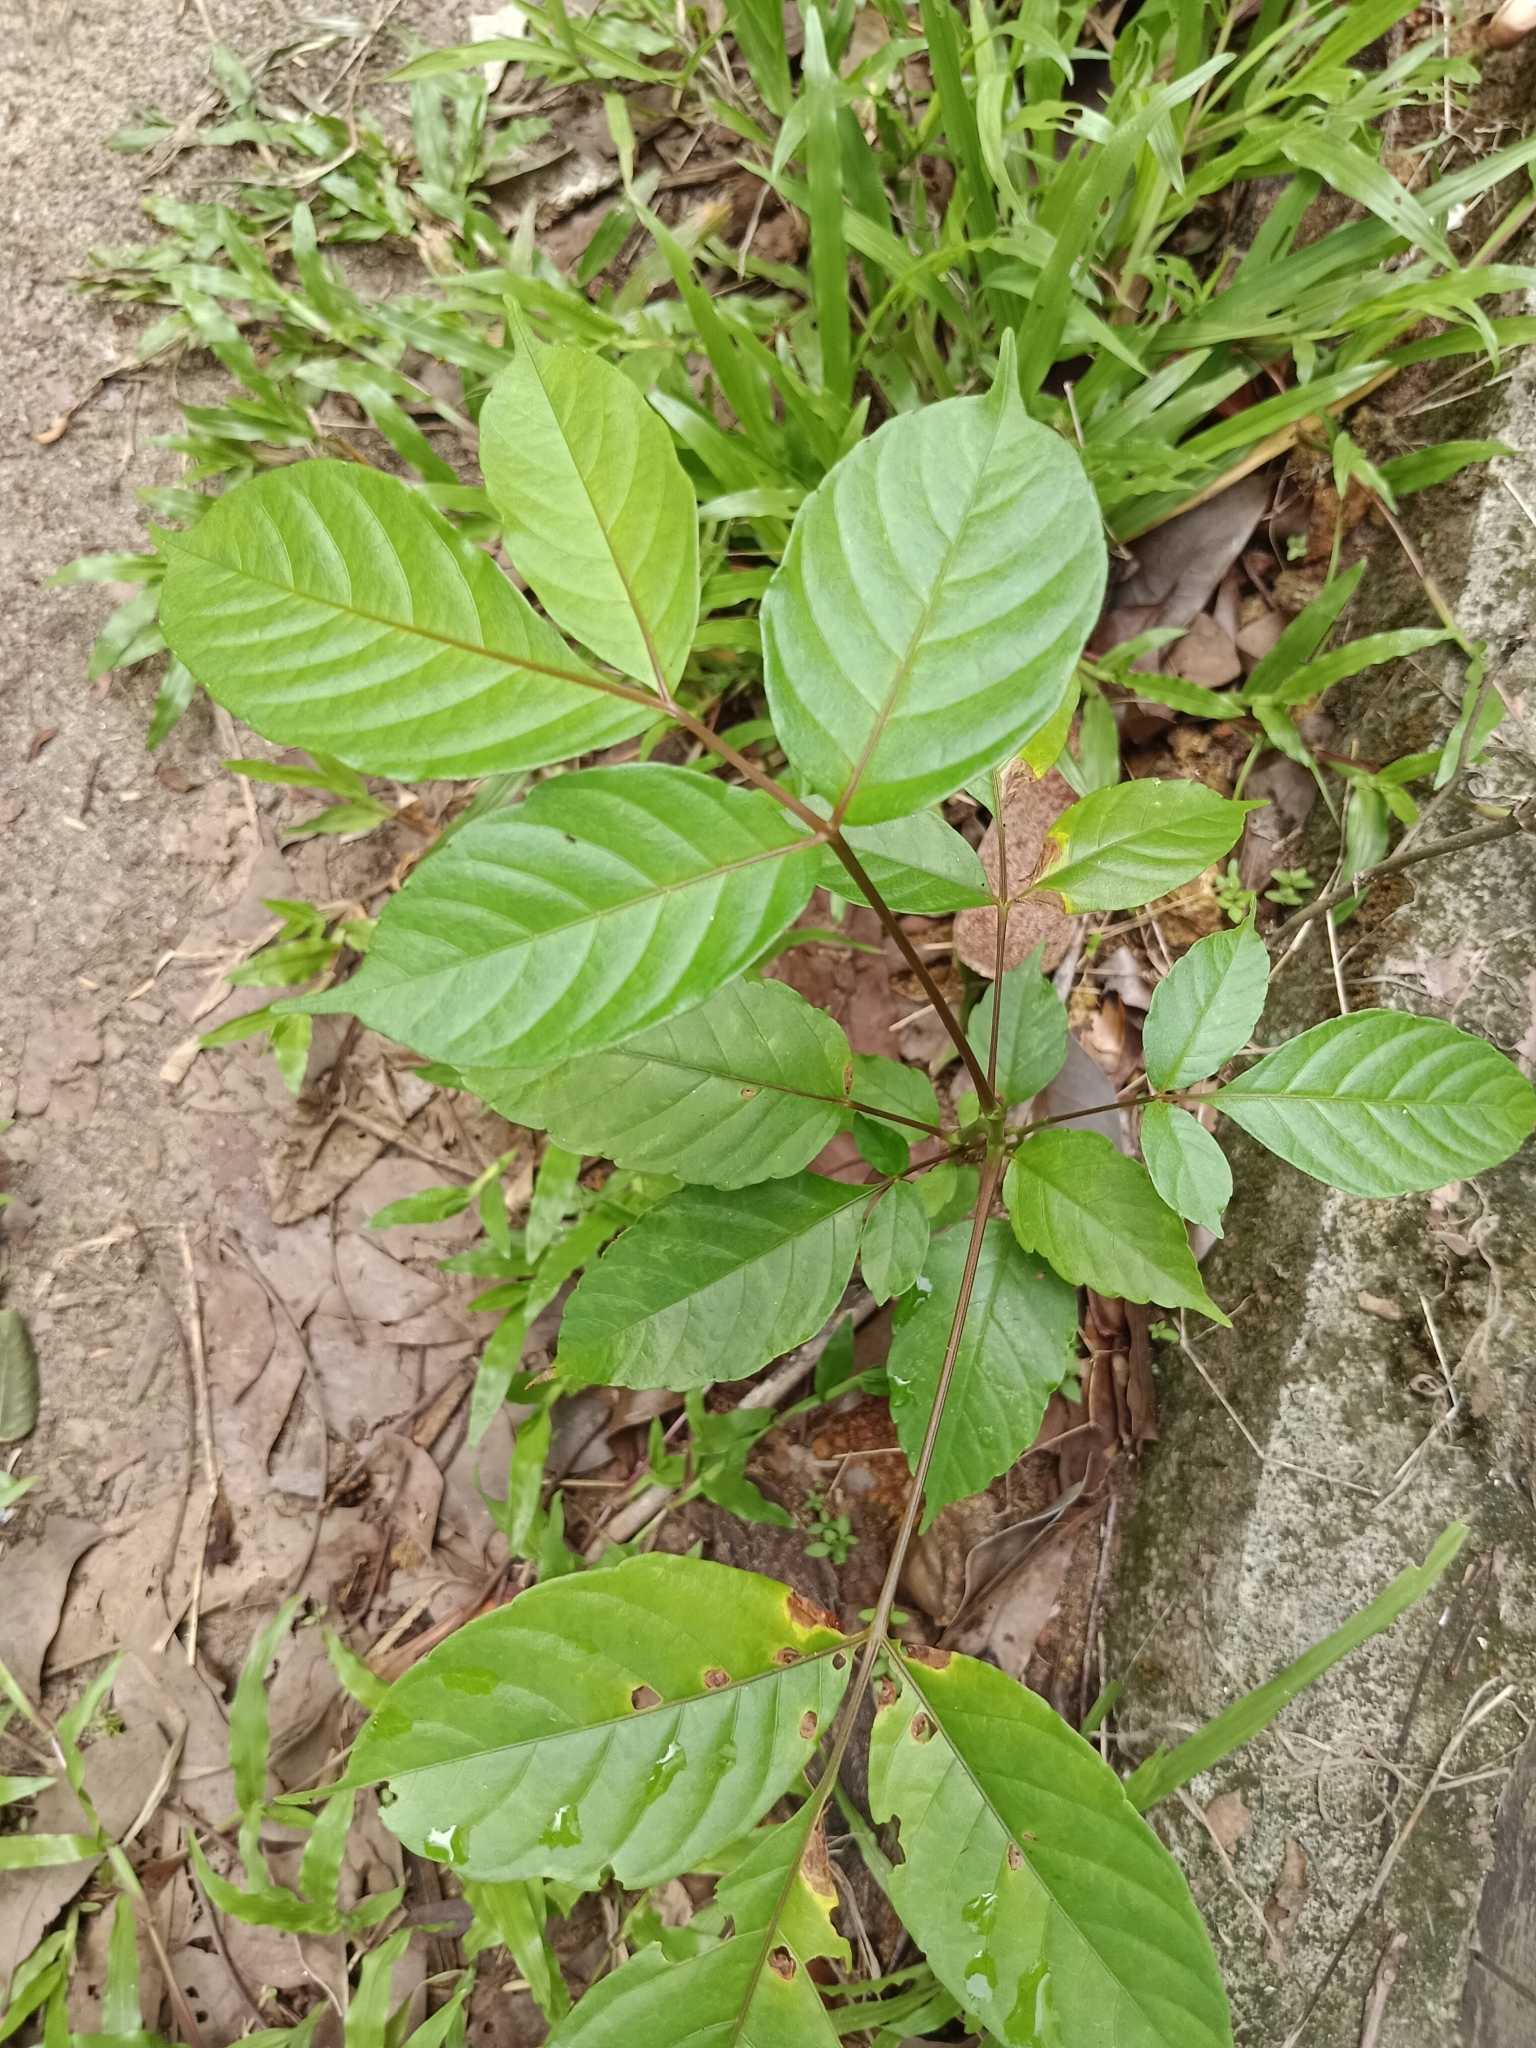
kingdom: Plantae
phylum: Tracheophyta
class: Magnoliopsida
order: Sapindales
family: Anacardiaceae
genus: Lannea
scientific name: Lannea coromandelica
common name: Indian ash tree
